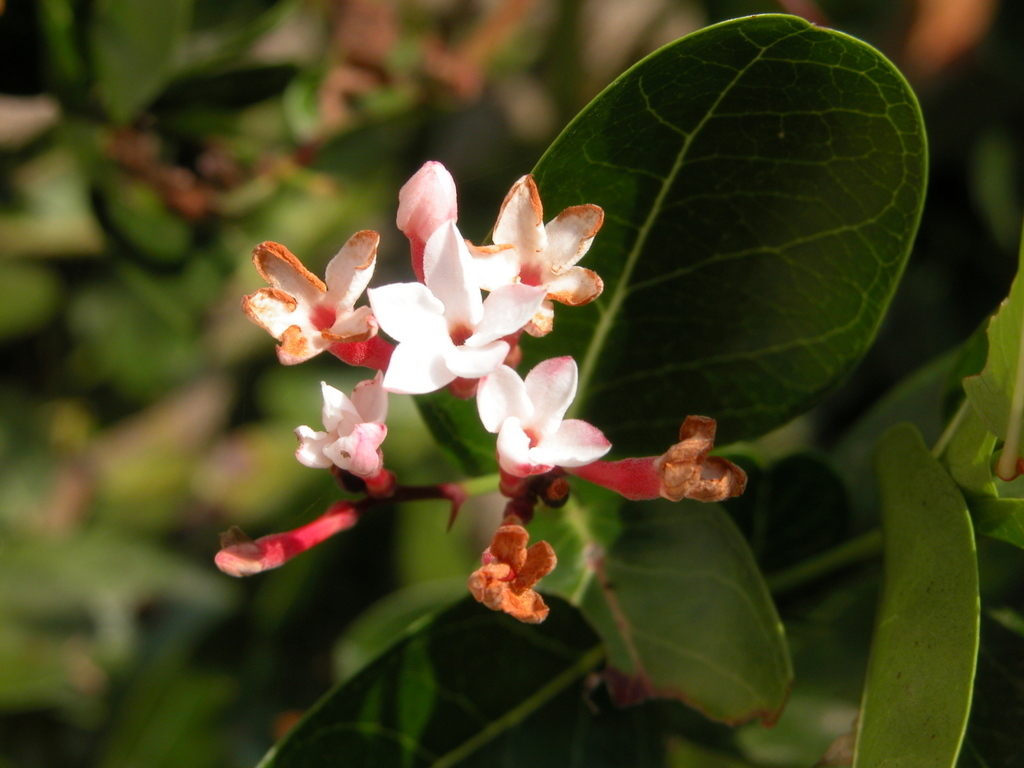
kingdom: Plantae
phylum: Tracheophyta
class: Magnoliopsida
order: Gentianales
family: Apocynaceae
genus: Carissa
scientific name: Carissa carandas
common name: Karanda
